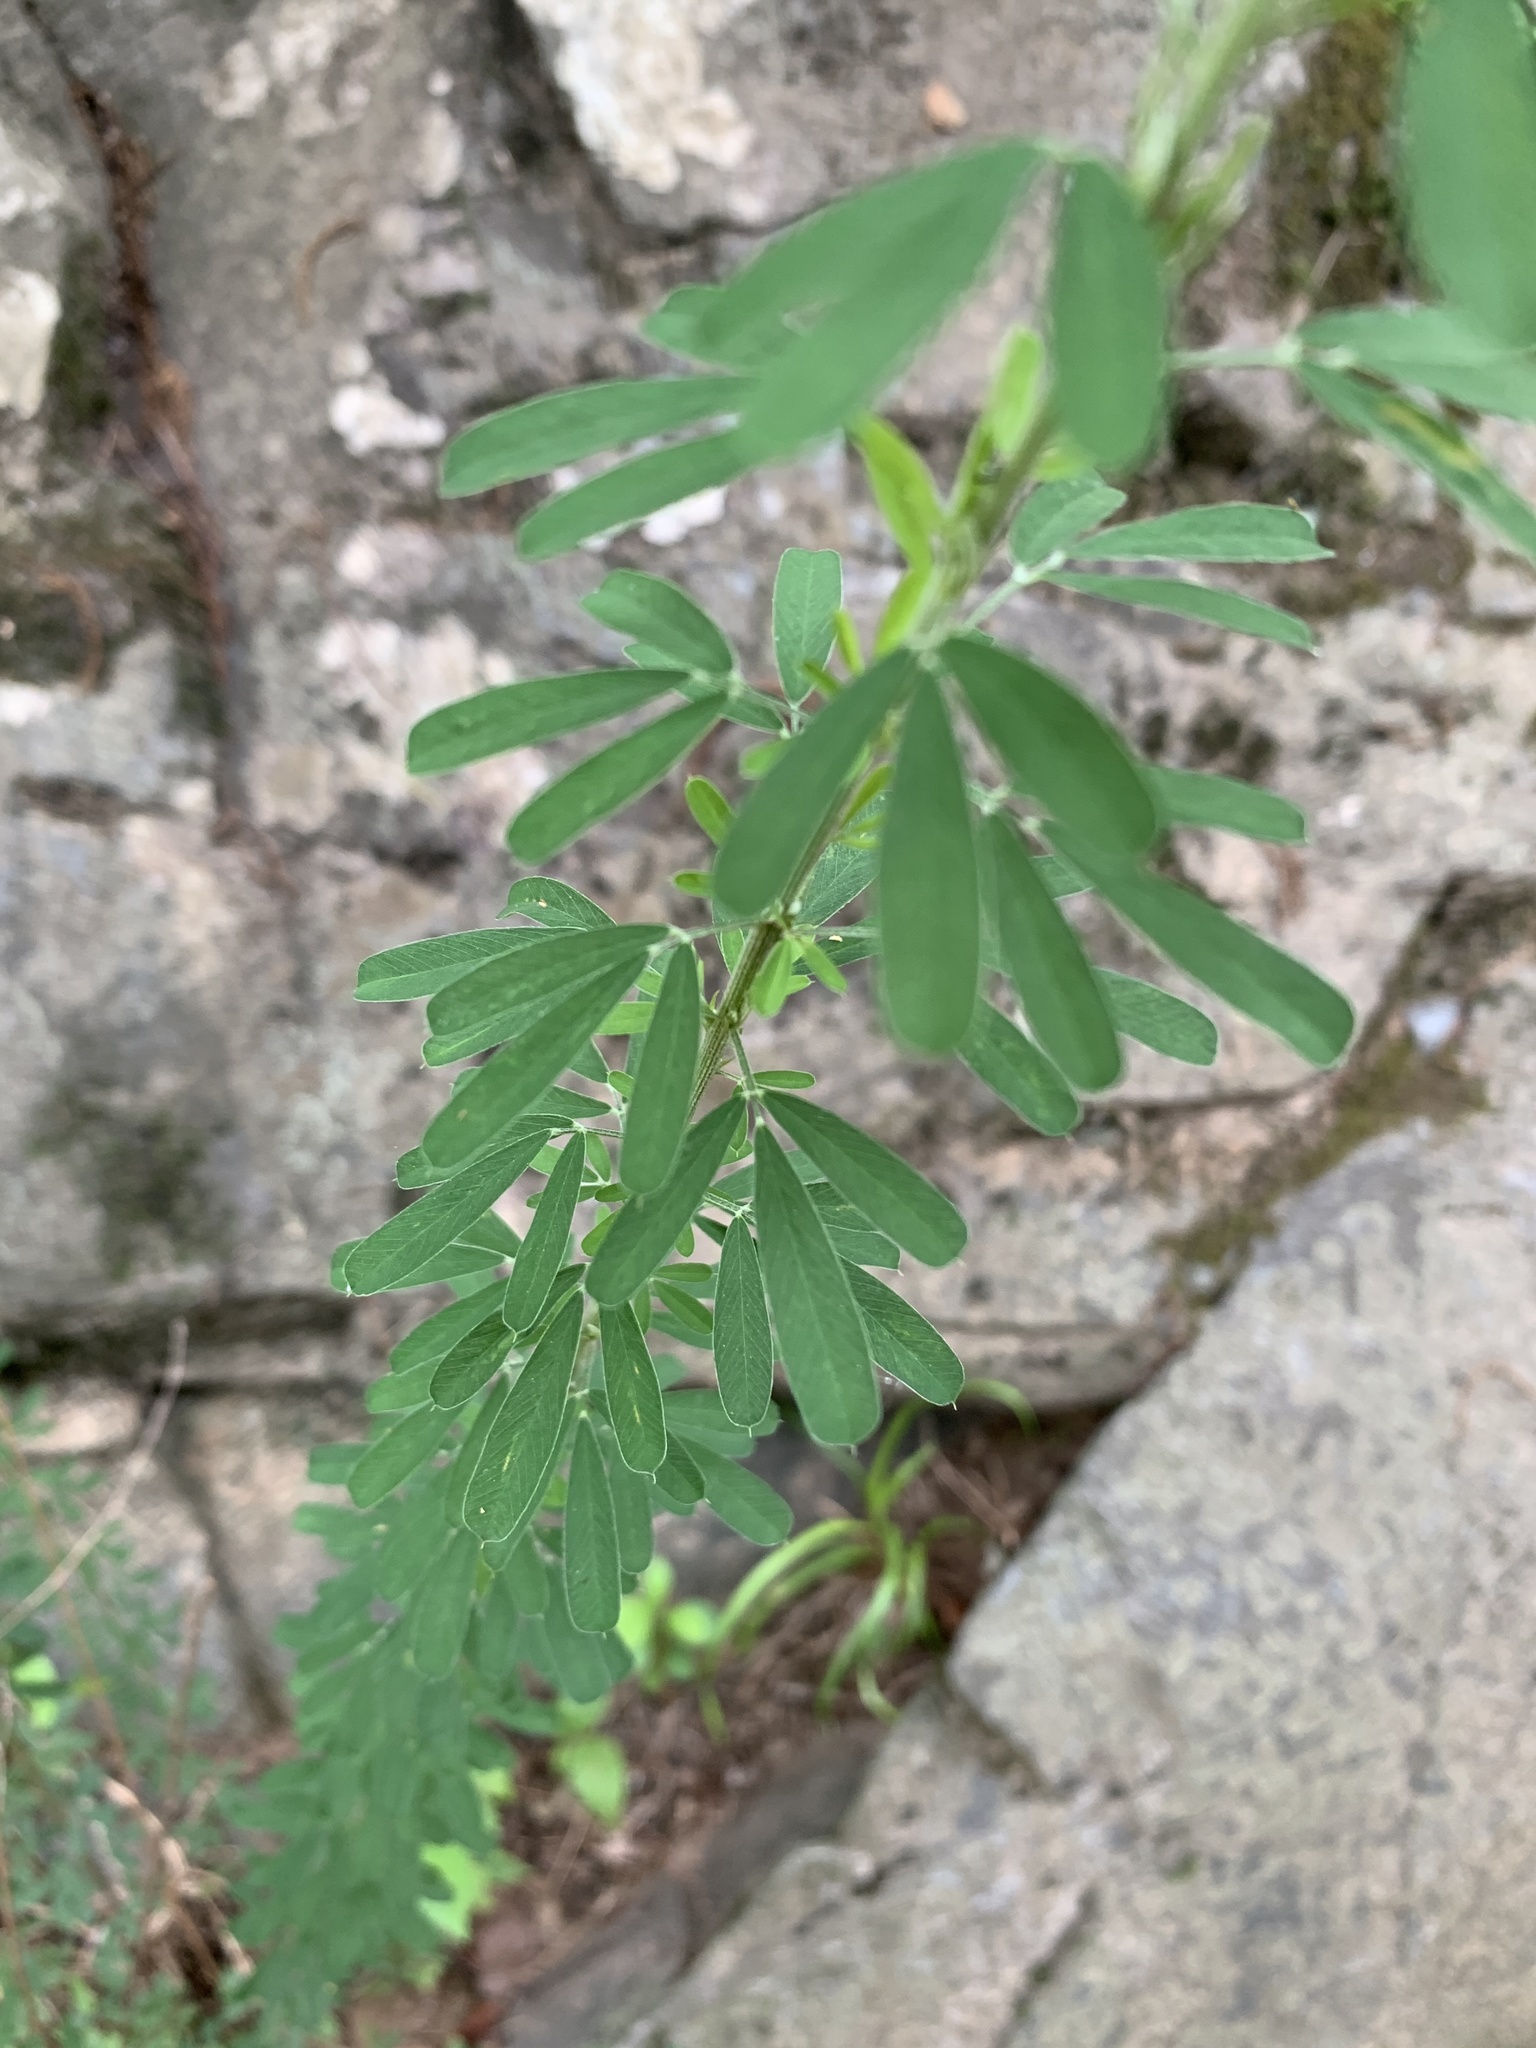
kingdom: Plantae
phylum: Tracheophyta
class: Magnoliopsida
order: Fabales
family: Fabaceae
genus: Lespedeza
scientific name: Lespedeza cuneata
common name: Chinese bush-clover
